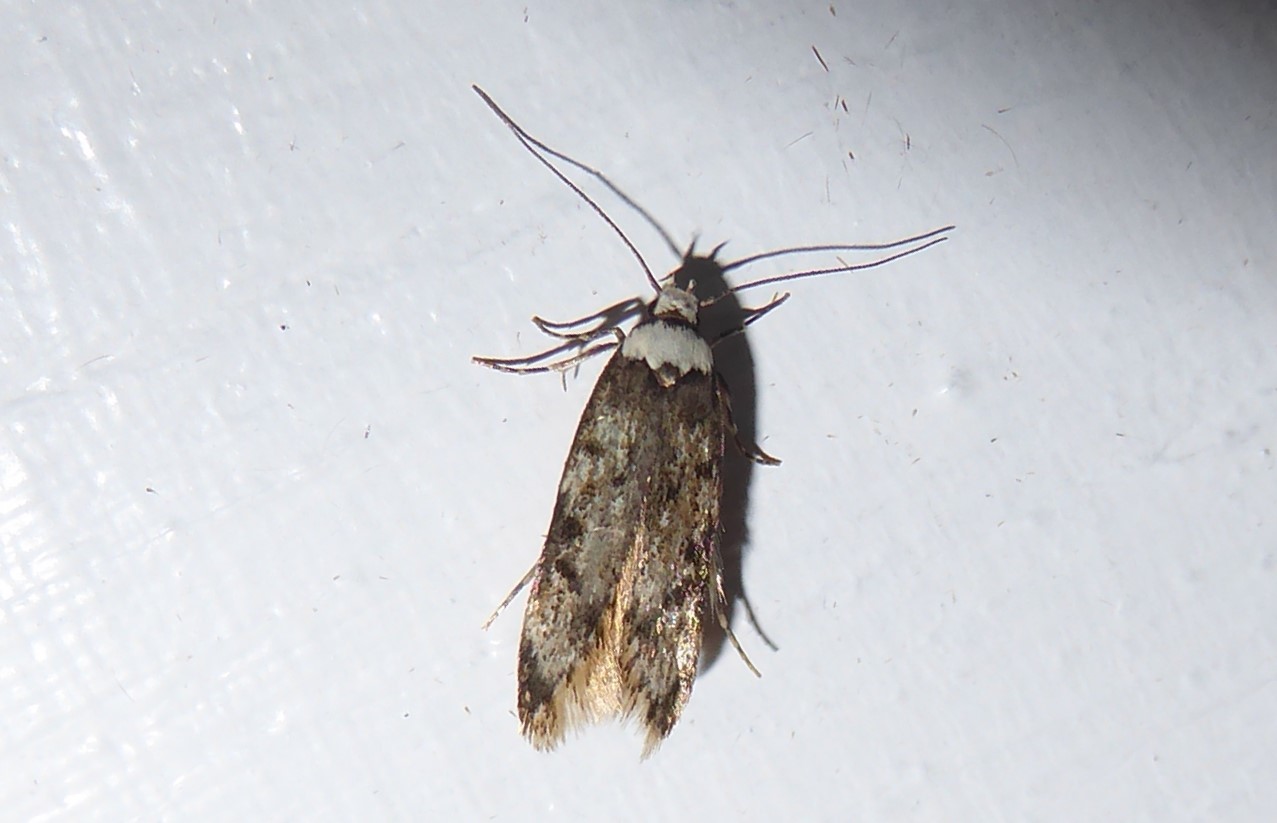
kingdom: Animalia
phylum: Arthropoda
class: Insecta
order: Lepidoptera
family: Oecophoridae
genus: Endrosis
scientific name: Endrosis sarcitrella
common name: White-shouldered house moth
